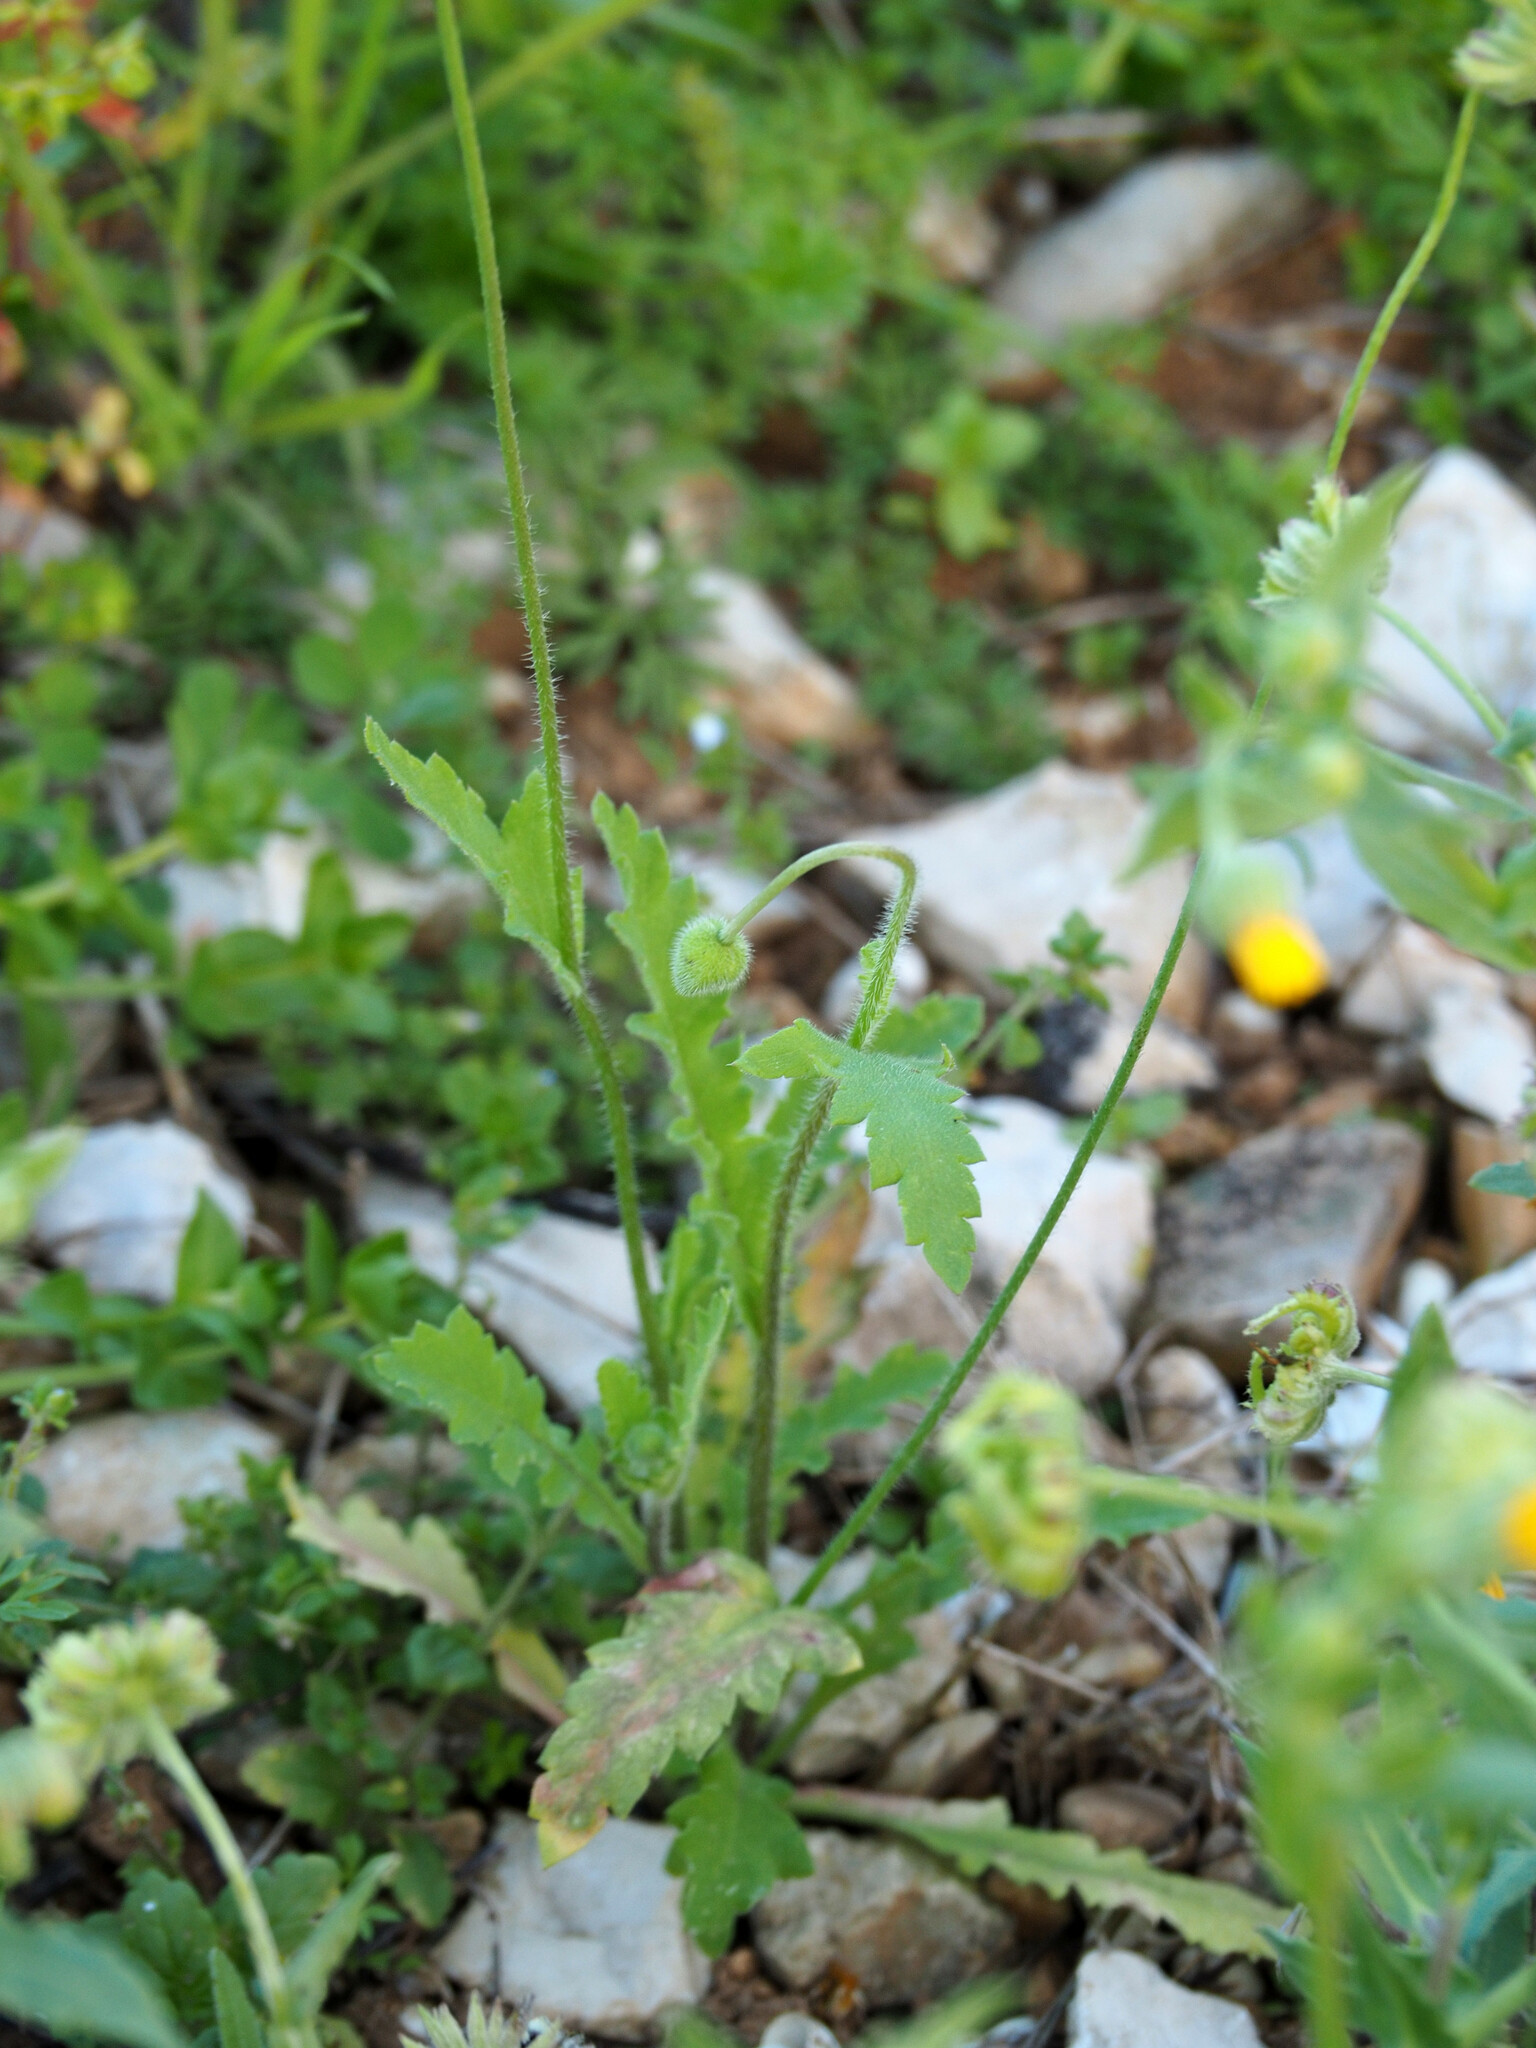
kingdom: Plantae
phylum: Tracheophyta
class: Magnoliopsida
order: Ranunculales
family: Papaveraceae
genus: Papaver
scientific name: Papaver dubium
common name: Long-headed poppy
